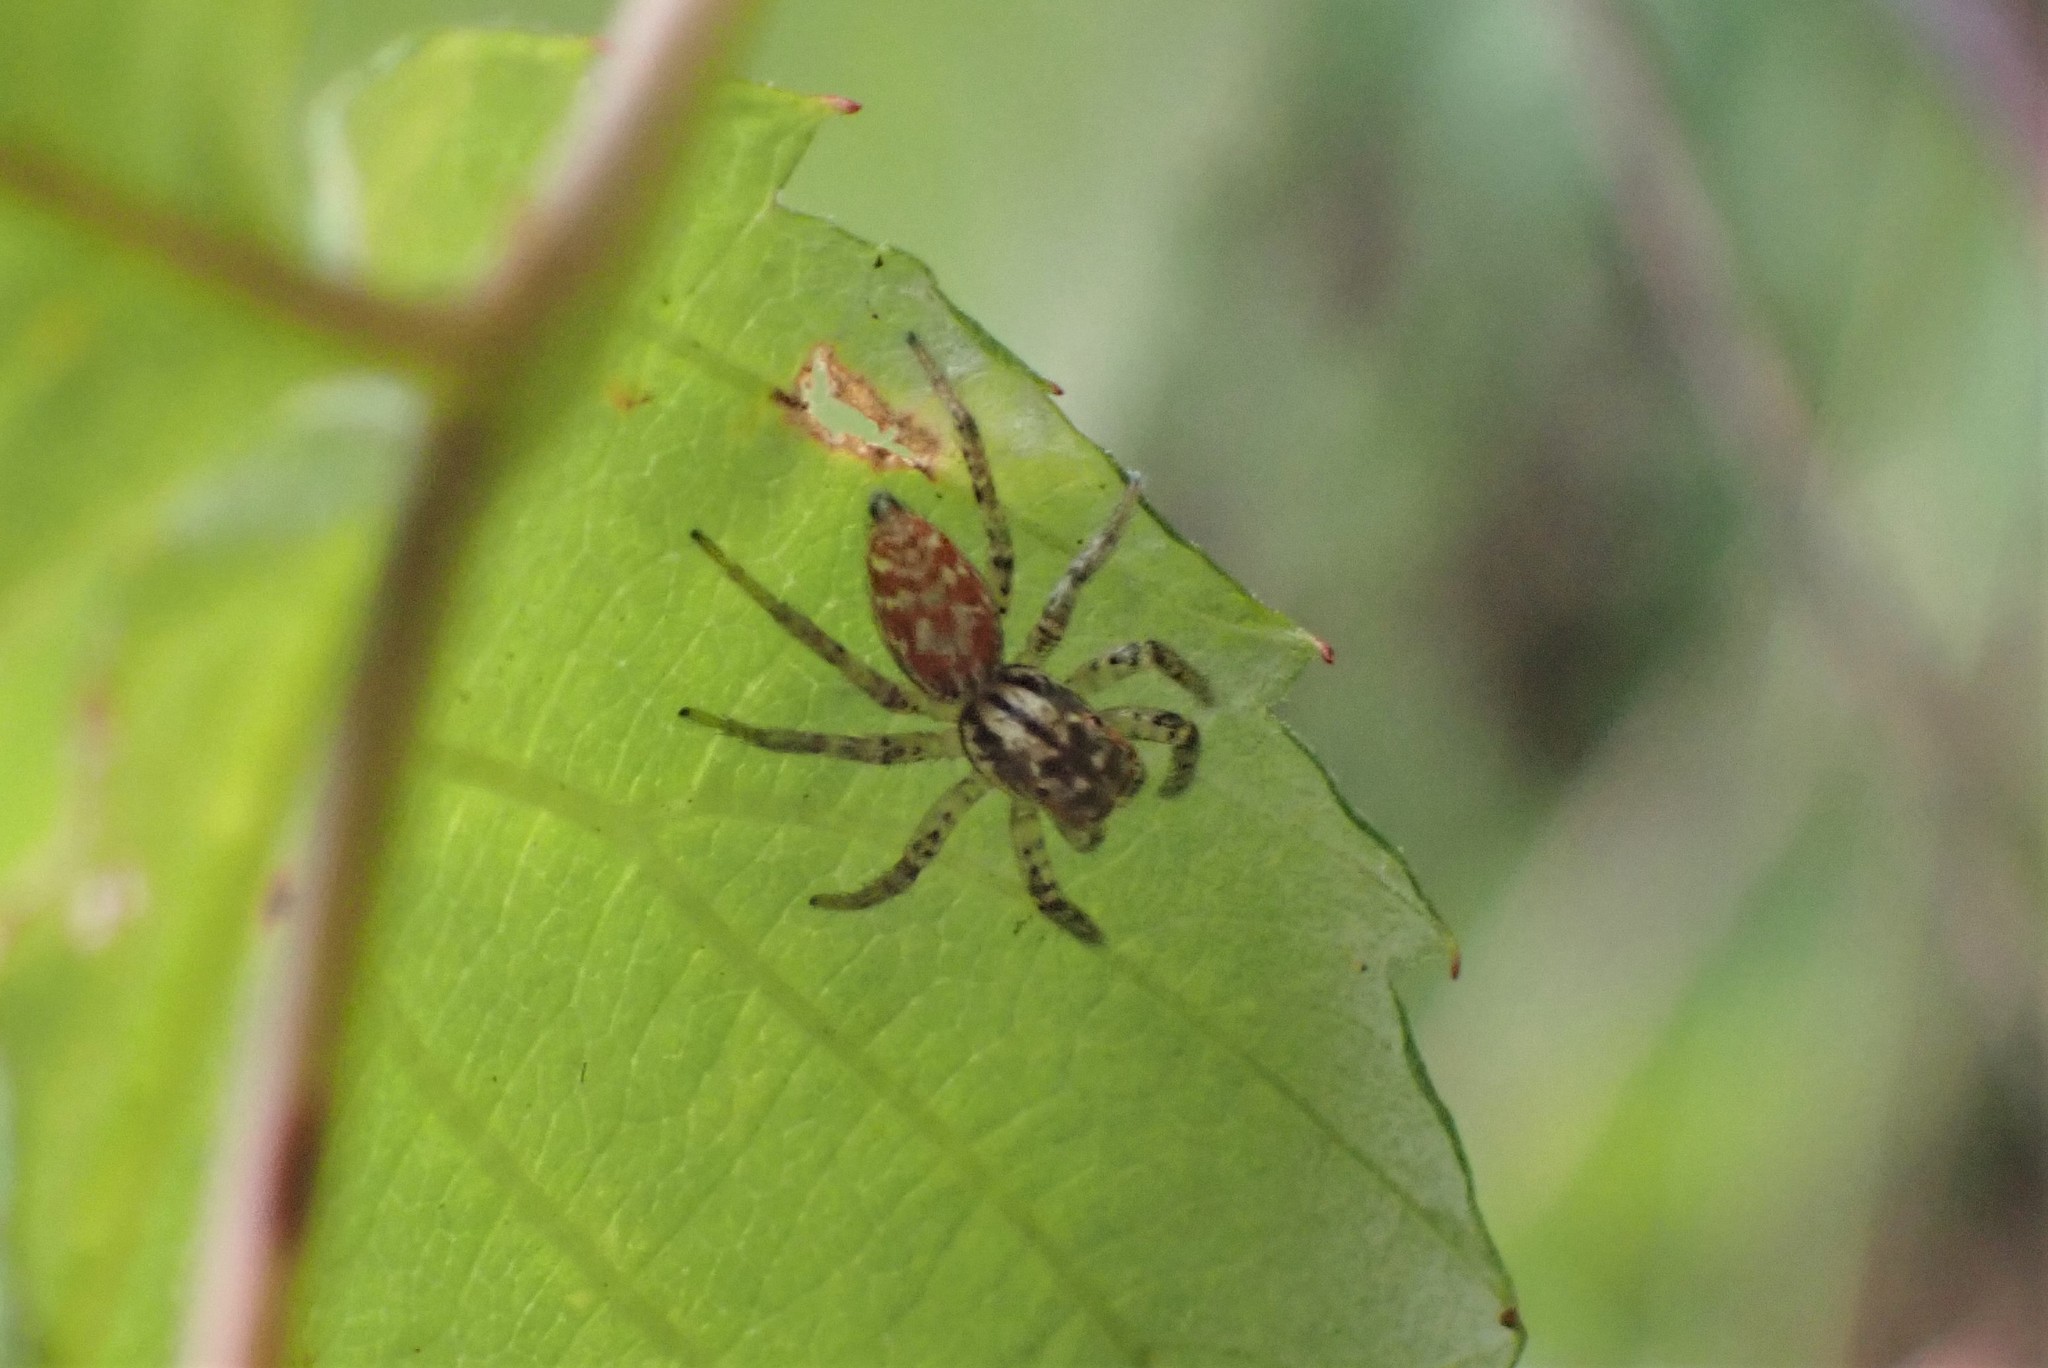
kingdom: Animalia
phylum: Arthropoda
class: Arachnida
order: Araneae
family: Salticidae
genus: Maevia
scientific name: Maevia inclemens
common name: Dimorphic jumper
